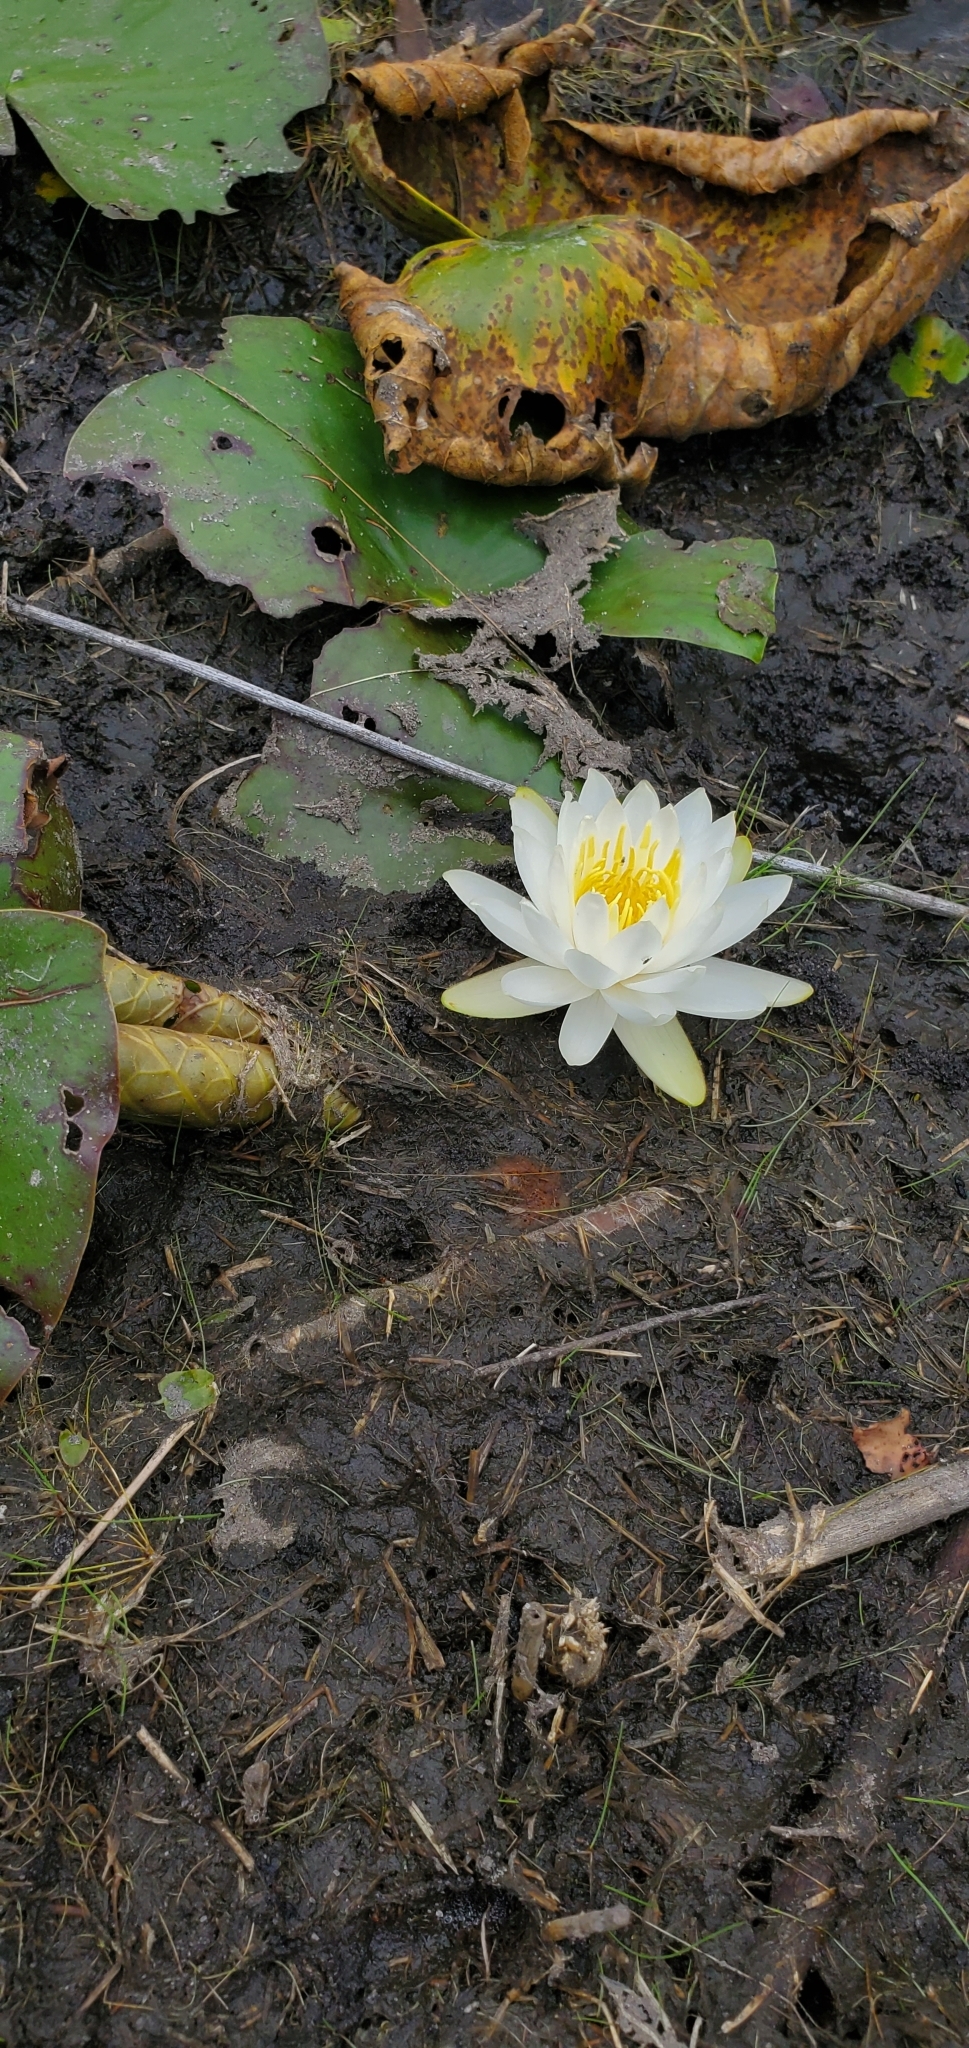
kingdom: Plantae
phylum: Tracheophyta
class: Magnoliopsida
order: Nymphaeales
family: Nymphaeaceae
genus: Nymphaea
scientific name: Nymphaea odorata
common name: Fragrant water-lily
